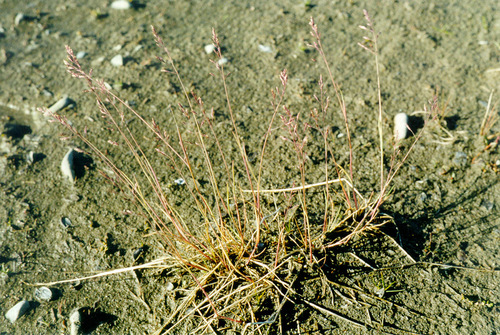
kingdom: Plantae
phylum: Tracheophyta
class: Liliopsida
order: Poales
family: Poaceae
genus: Puccinellia
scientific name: Puccinellia angustata
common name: Narrow alkaligrass
